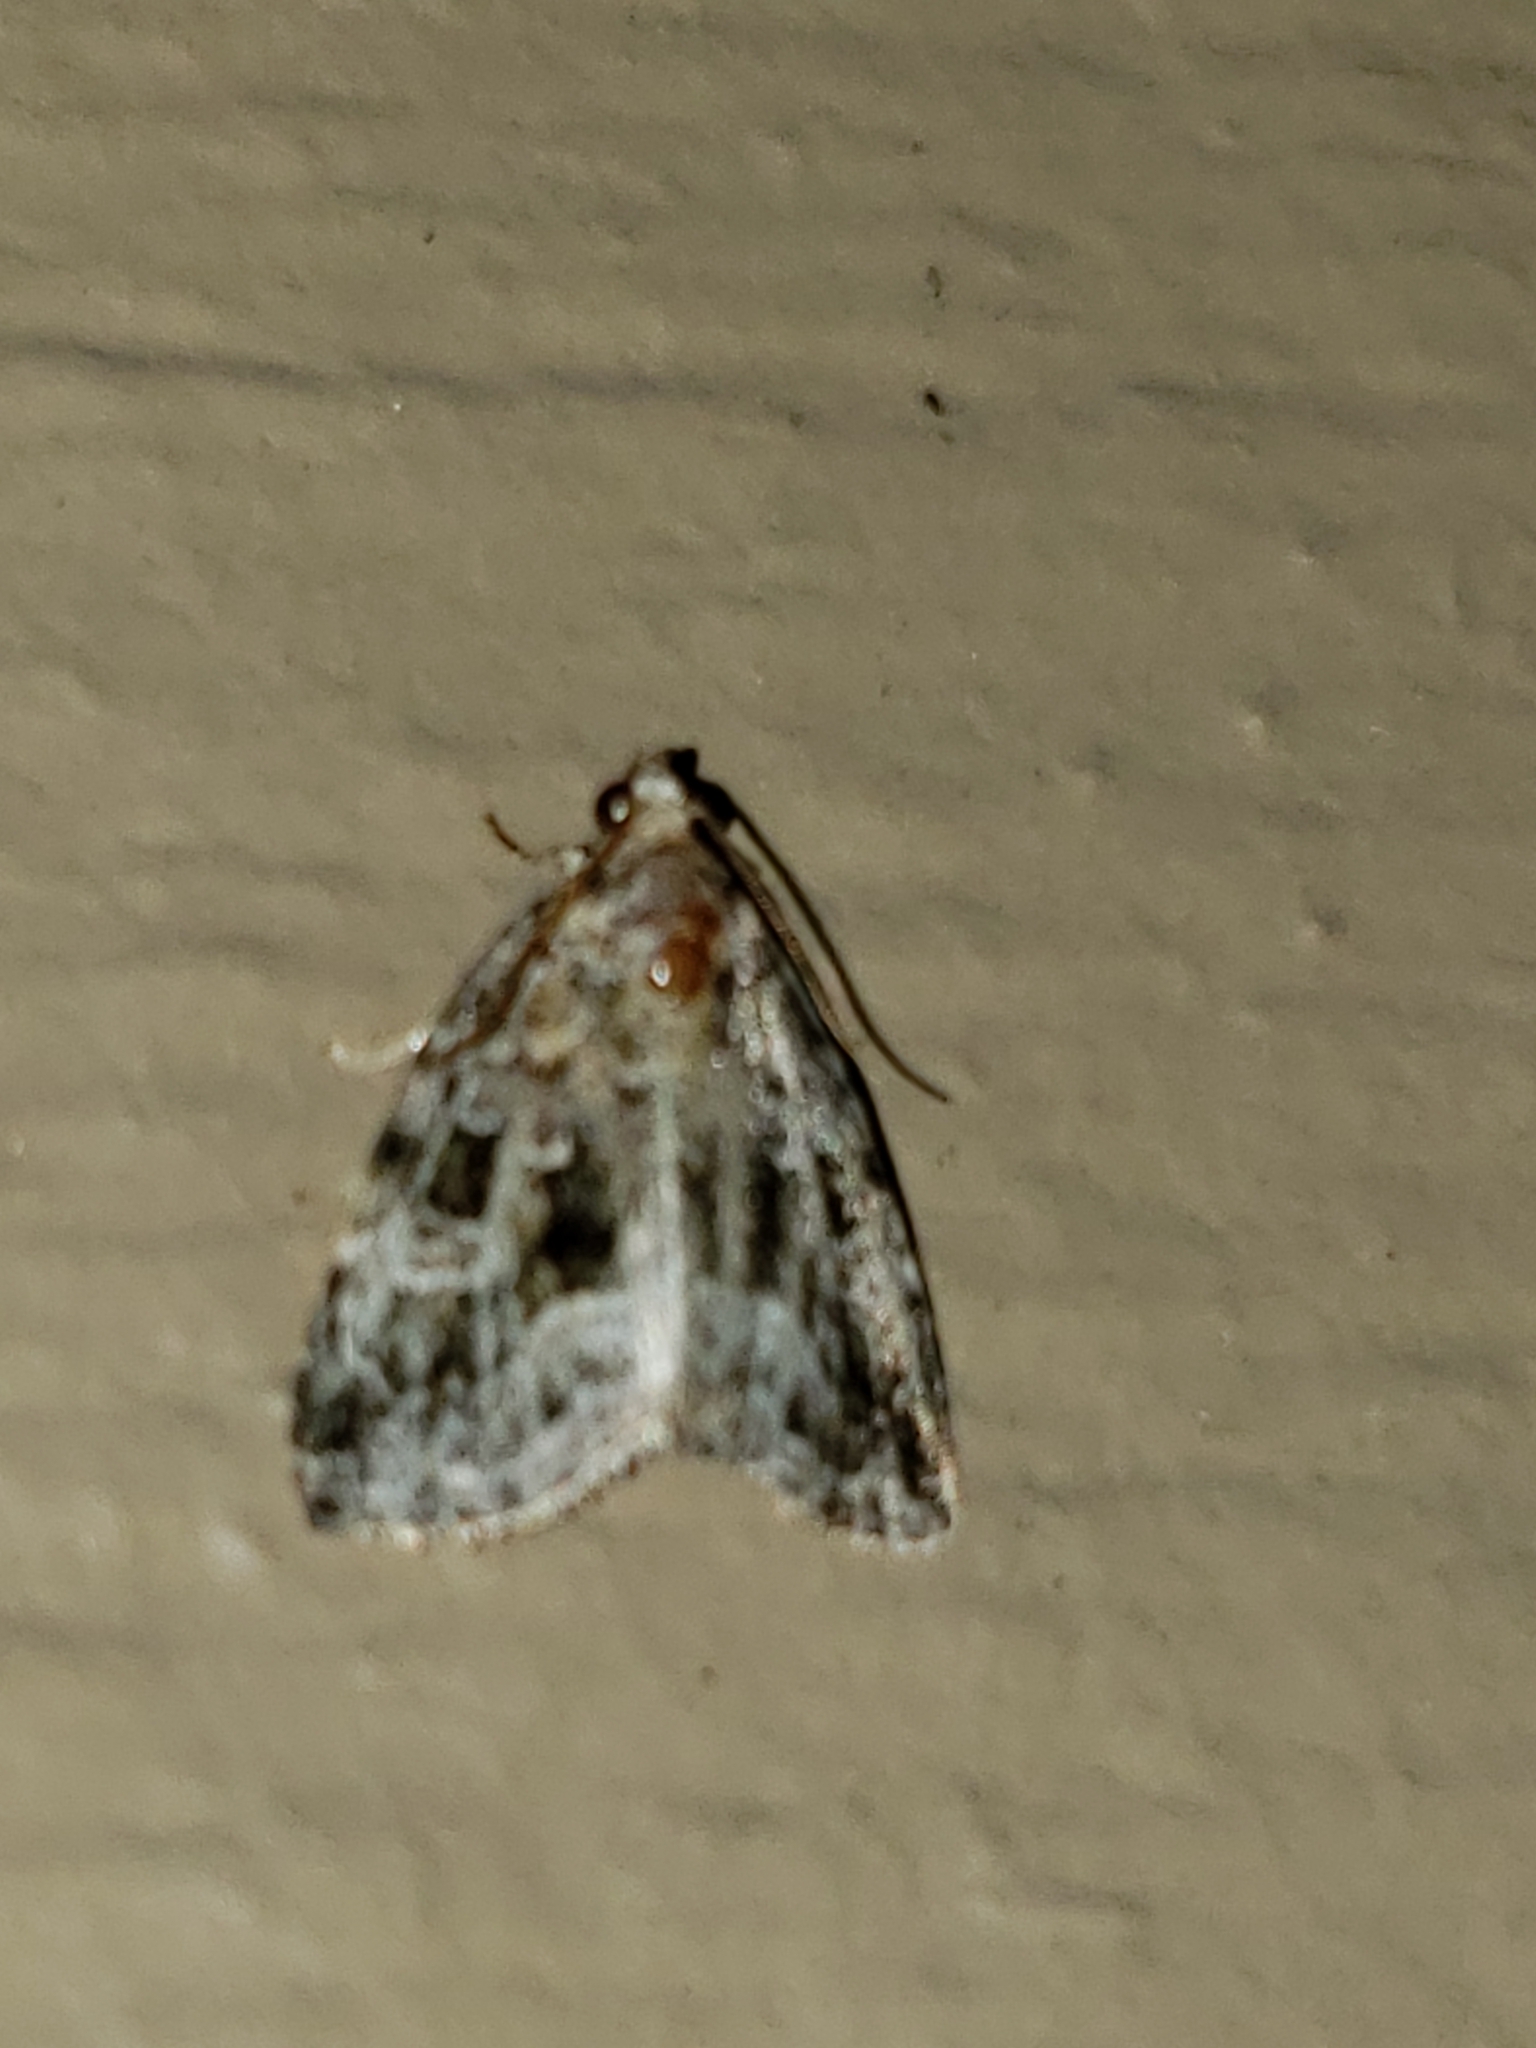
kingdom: Animalia
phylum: Arthropoda
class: Insecta
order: Lepidoptera
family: Noctuidae
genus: Protodeltote
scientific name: Protodeltote muscosula
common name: Large mossy glyph
